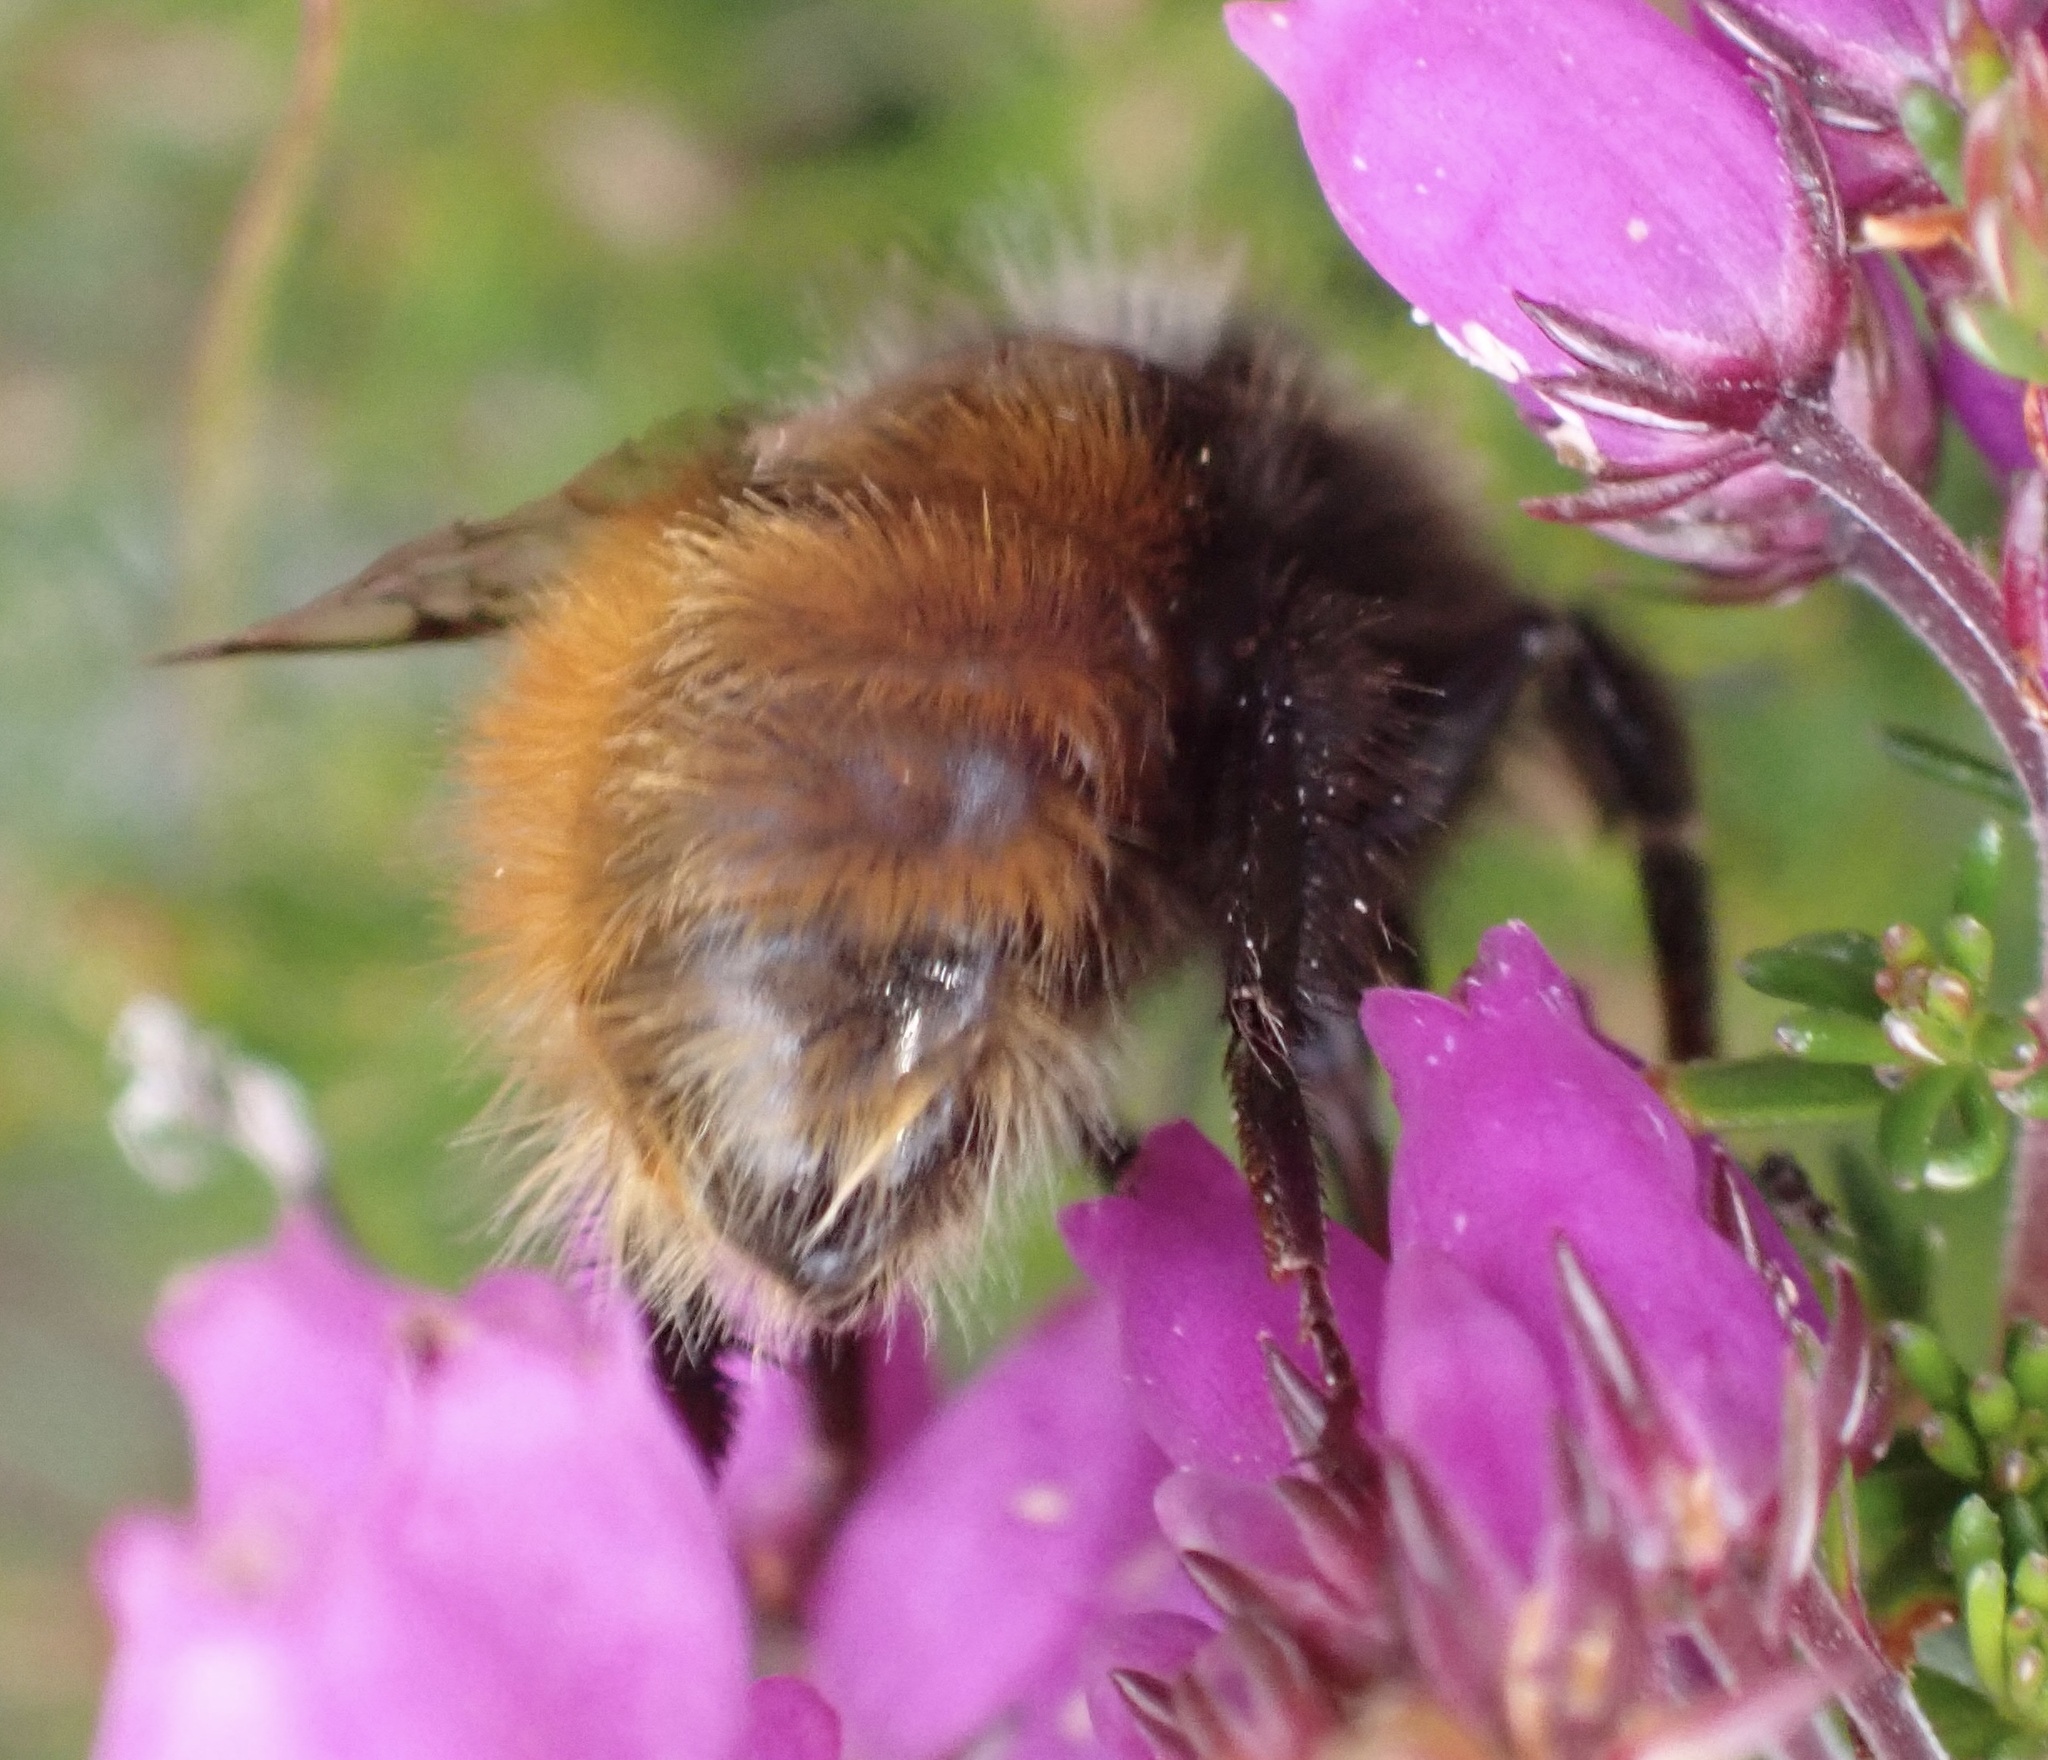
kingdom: Animalia
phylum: Arthropoda
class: Insecta
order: Hymenoptera
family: Apidae
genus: Bombus
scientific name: Bombus monticola
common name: Bilberry humble-bee
